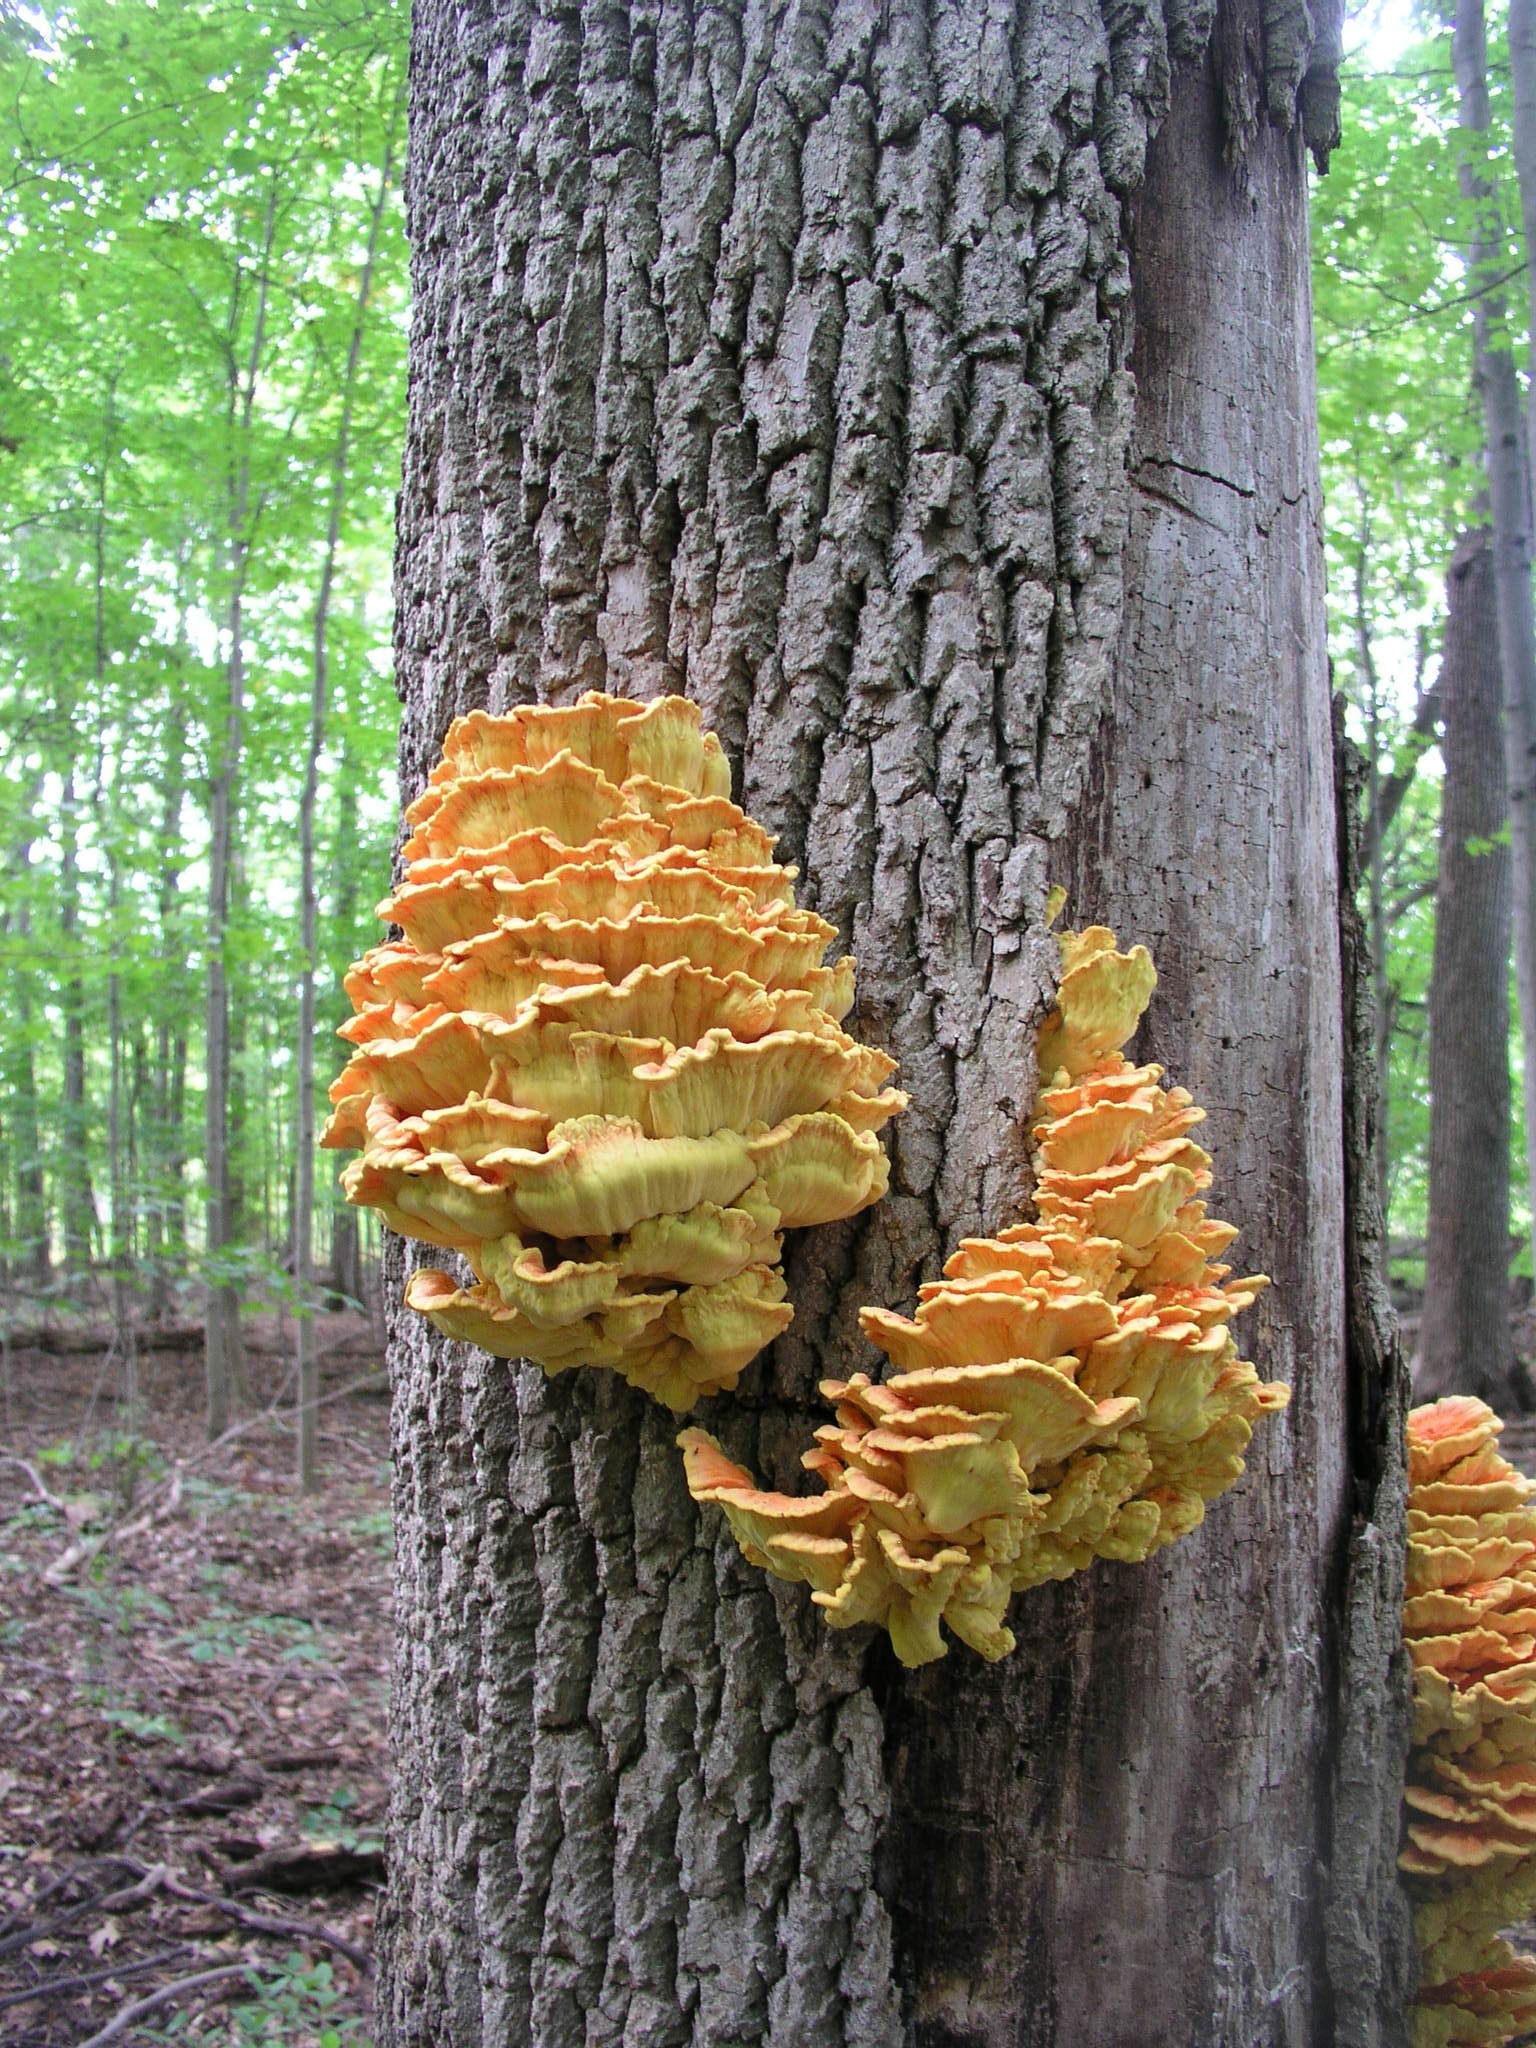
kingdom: Fungi
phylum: Basidiomycota
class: Agaricomycetes
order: Polyporales
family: Laetiporaceae
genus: Laetiporus
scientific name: Laetiporus sulphureus
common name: Chicken of the woods
